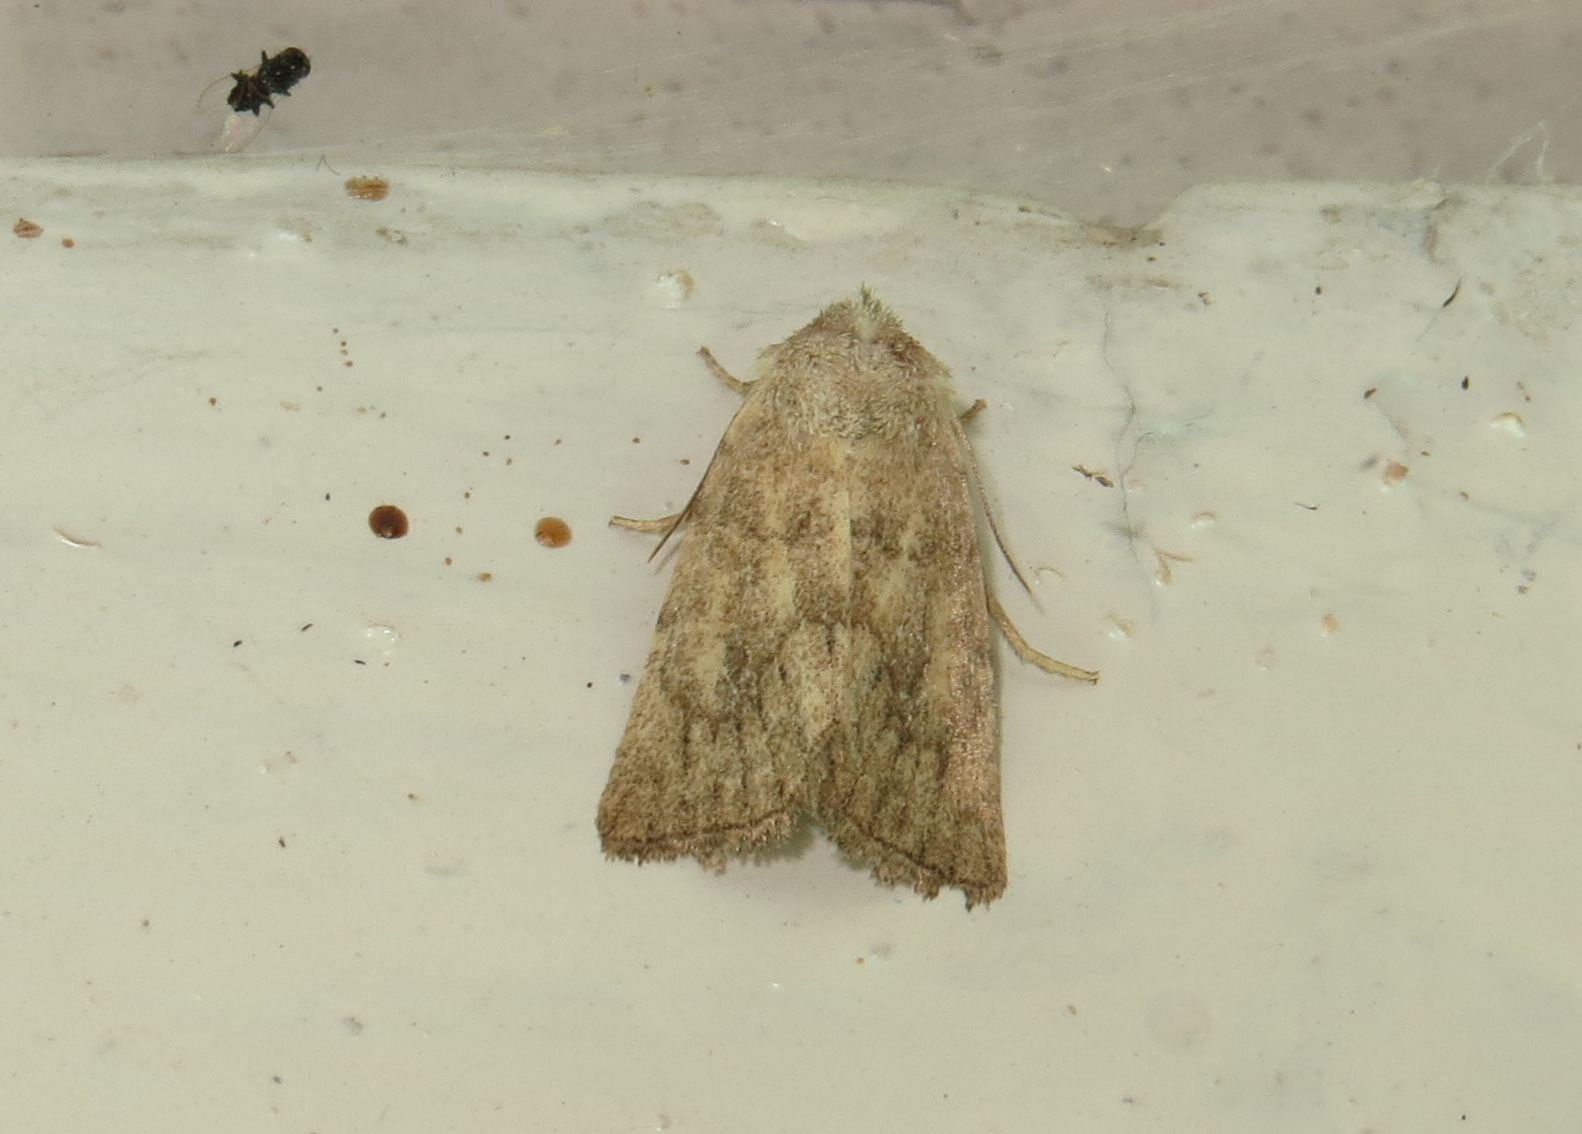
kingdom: Animalia
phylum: Arthropoda
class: Insecta
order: Lepidoptera
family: Noctuidae
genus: Photedes
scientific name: Photedes fluxa
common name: Mere wainscot
